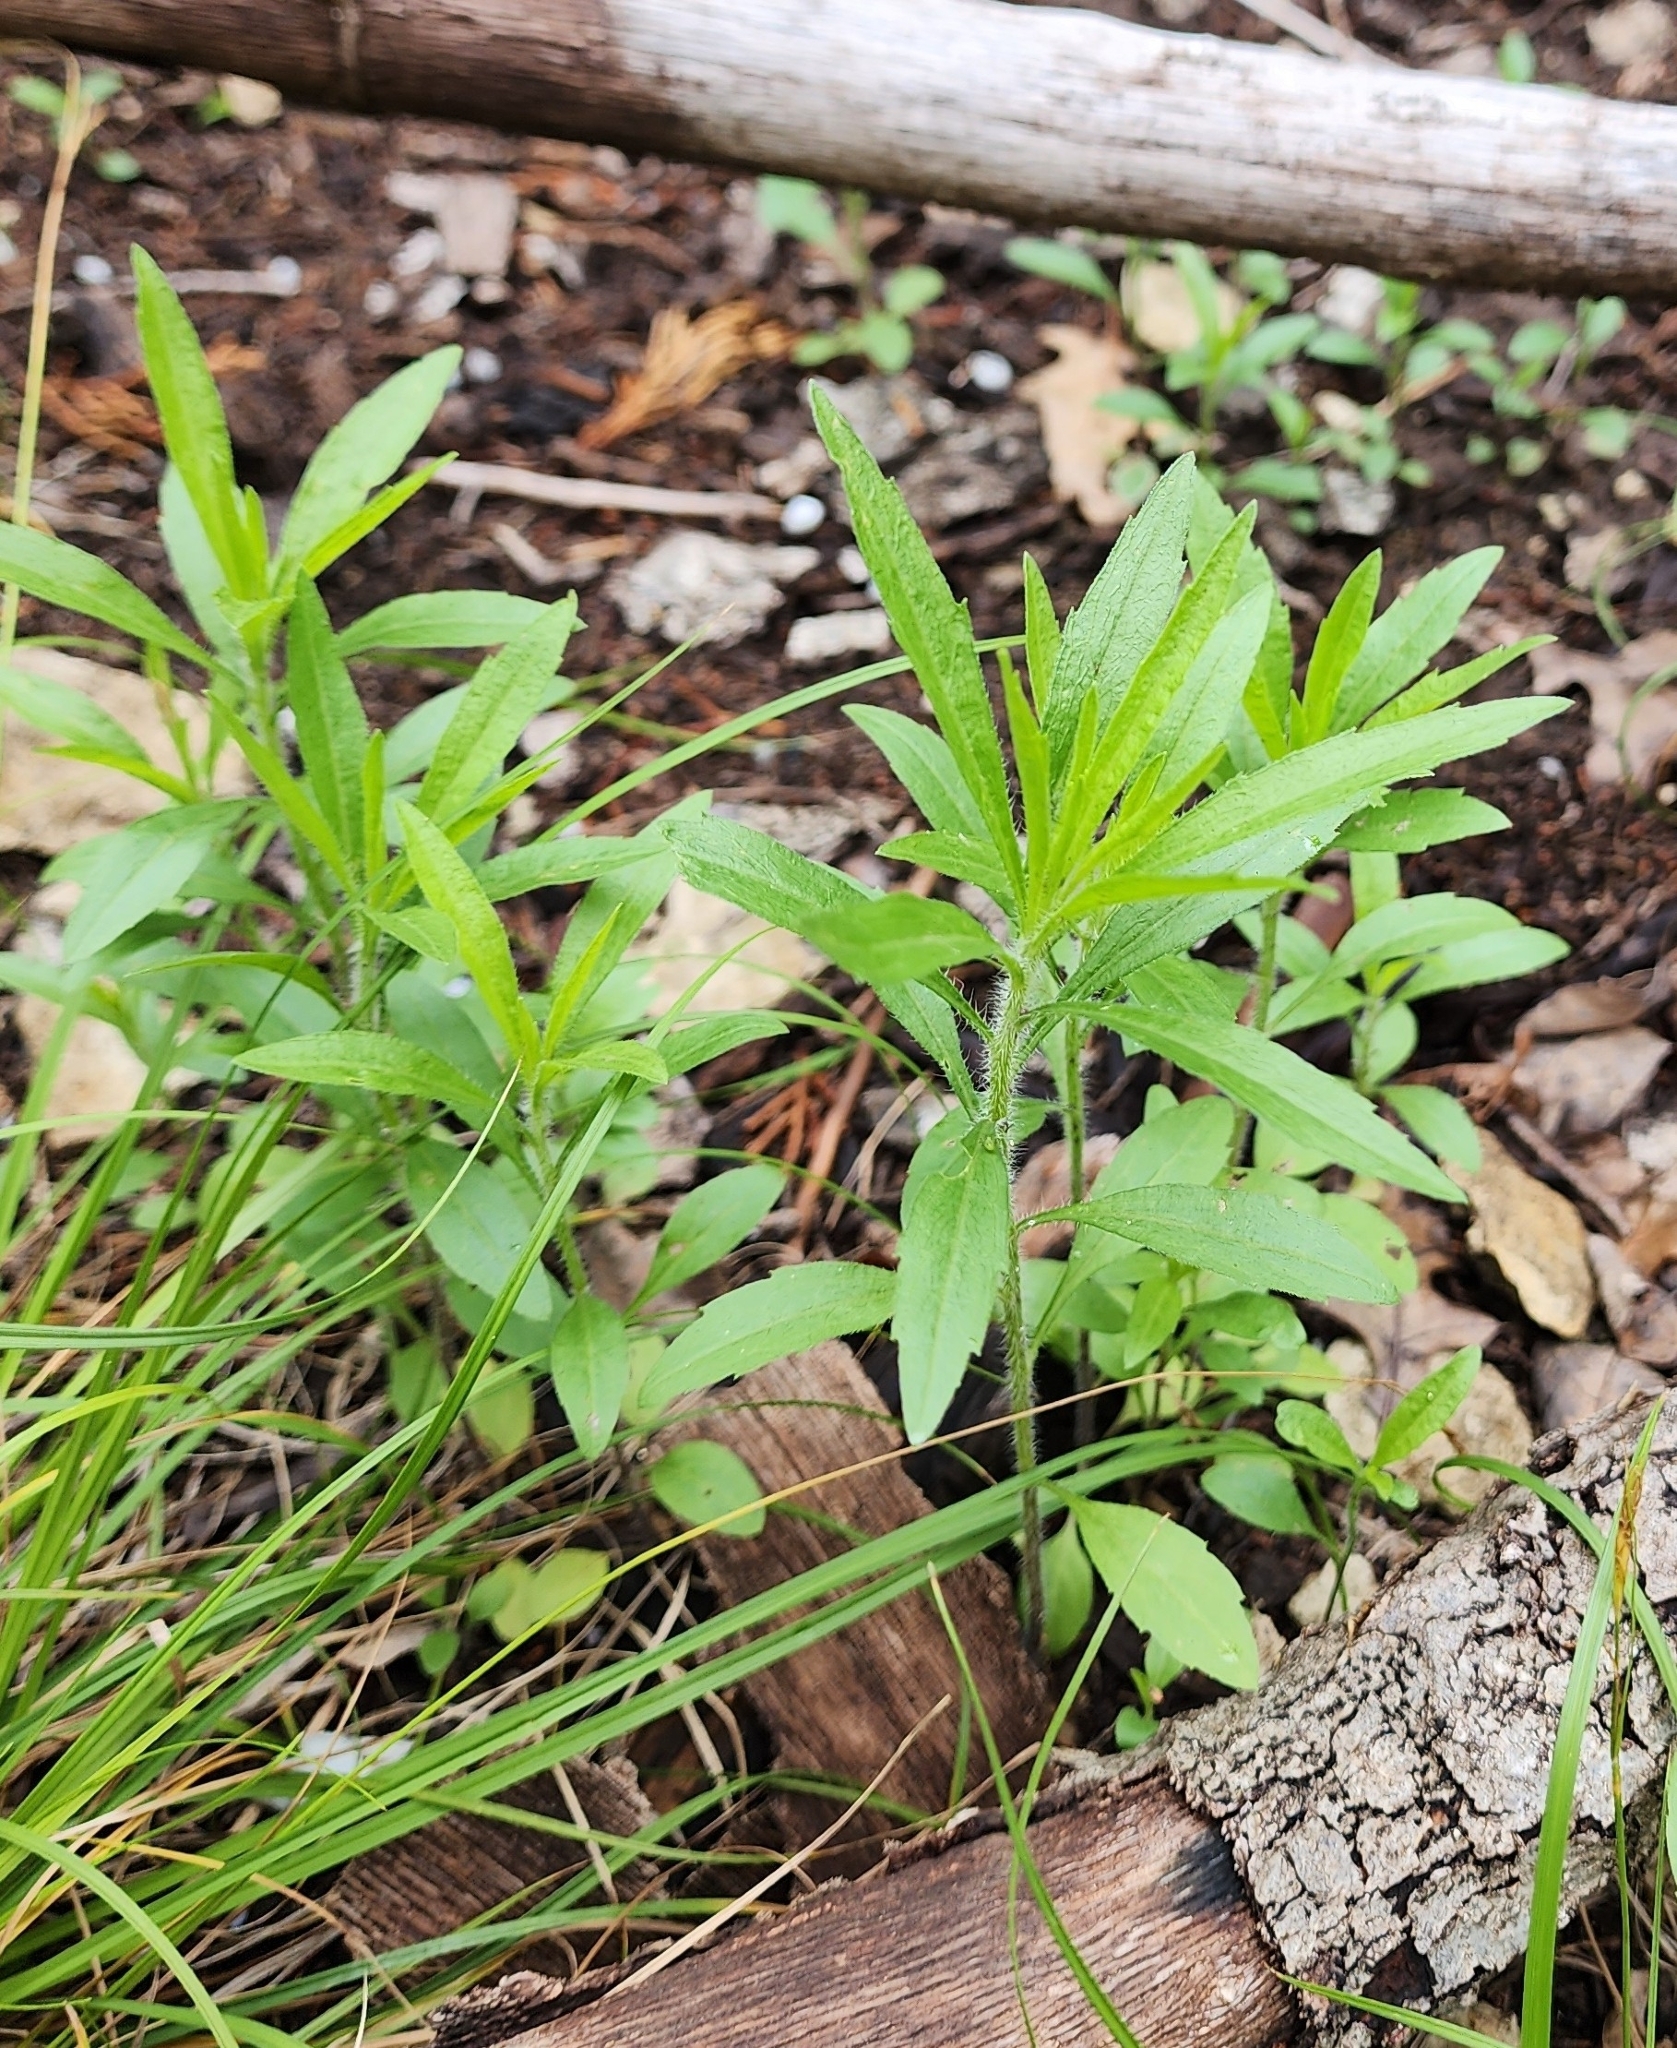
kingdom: Plantae
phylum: Tracheophyta
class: Magnoliopsida
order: Asterales
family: Asteraceae
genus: Baccharis
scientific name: Baccharis neglecta
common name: Roosevelt-weed
